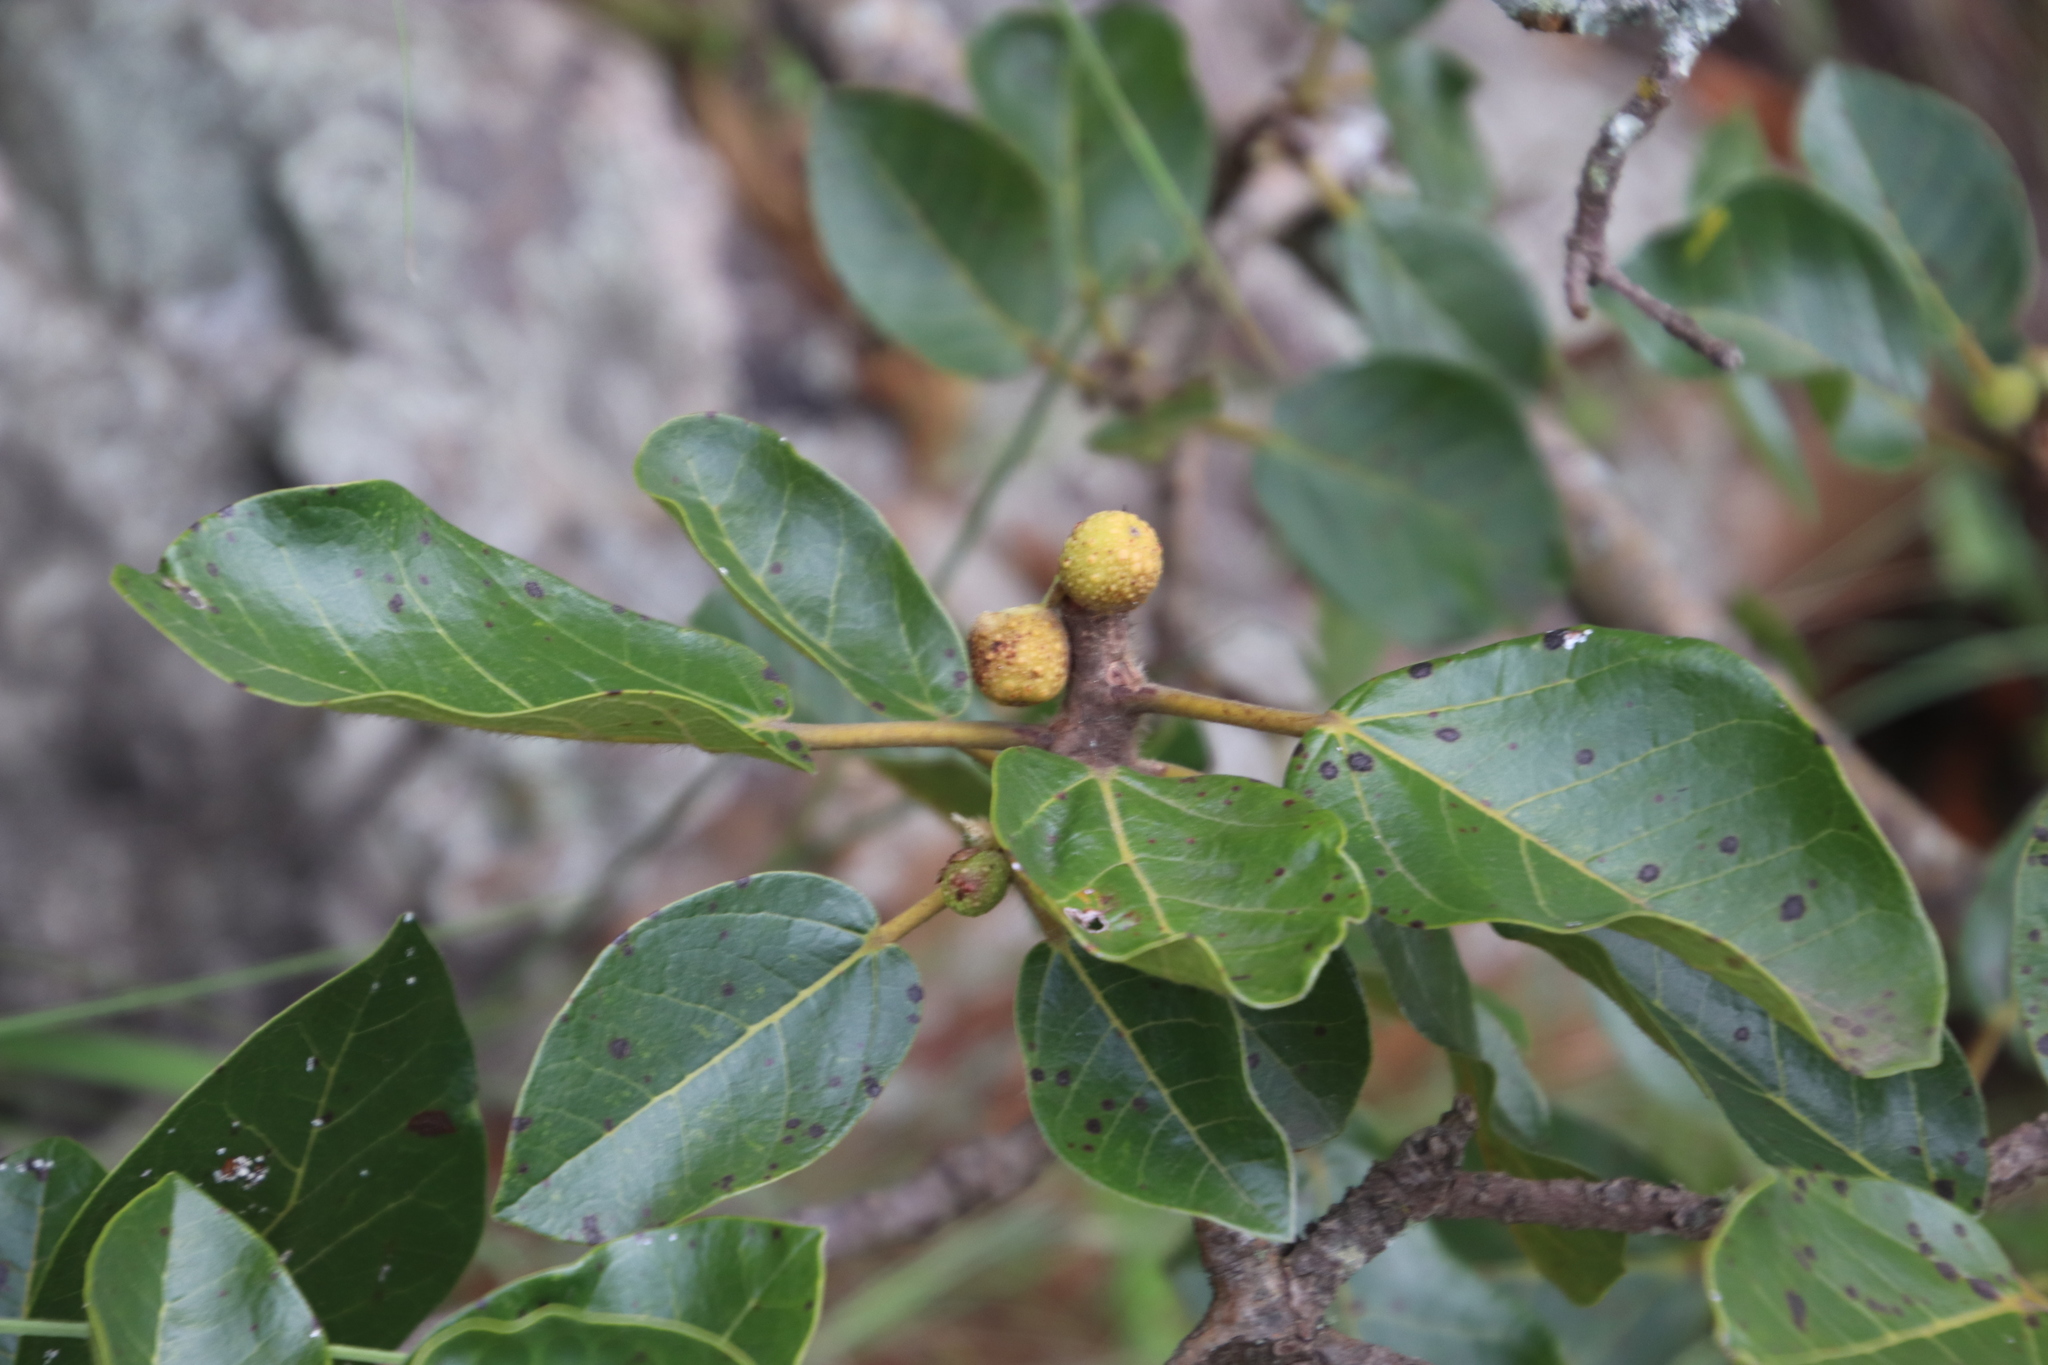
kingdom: Plantae
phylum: Tracheophyta
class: Magnoliopsida
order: Rosales
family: Moraceae
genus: Ficus
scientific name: Ficus glumosa
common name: Hairy rock fig
